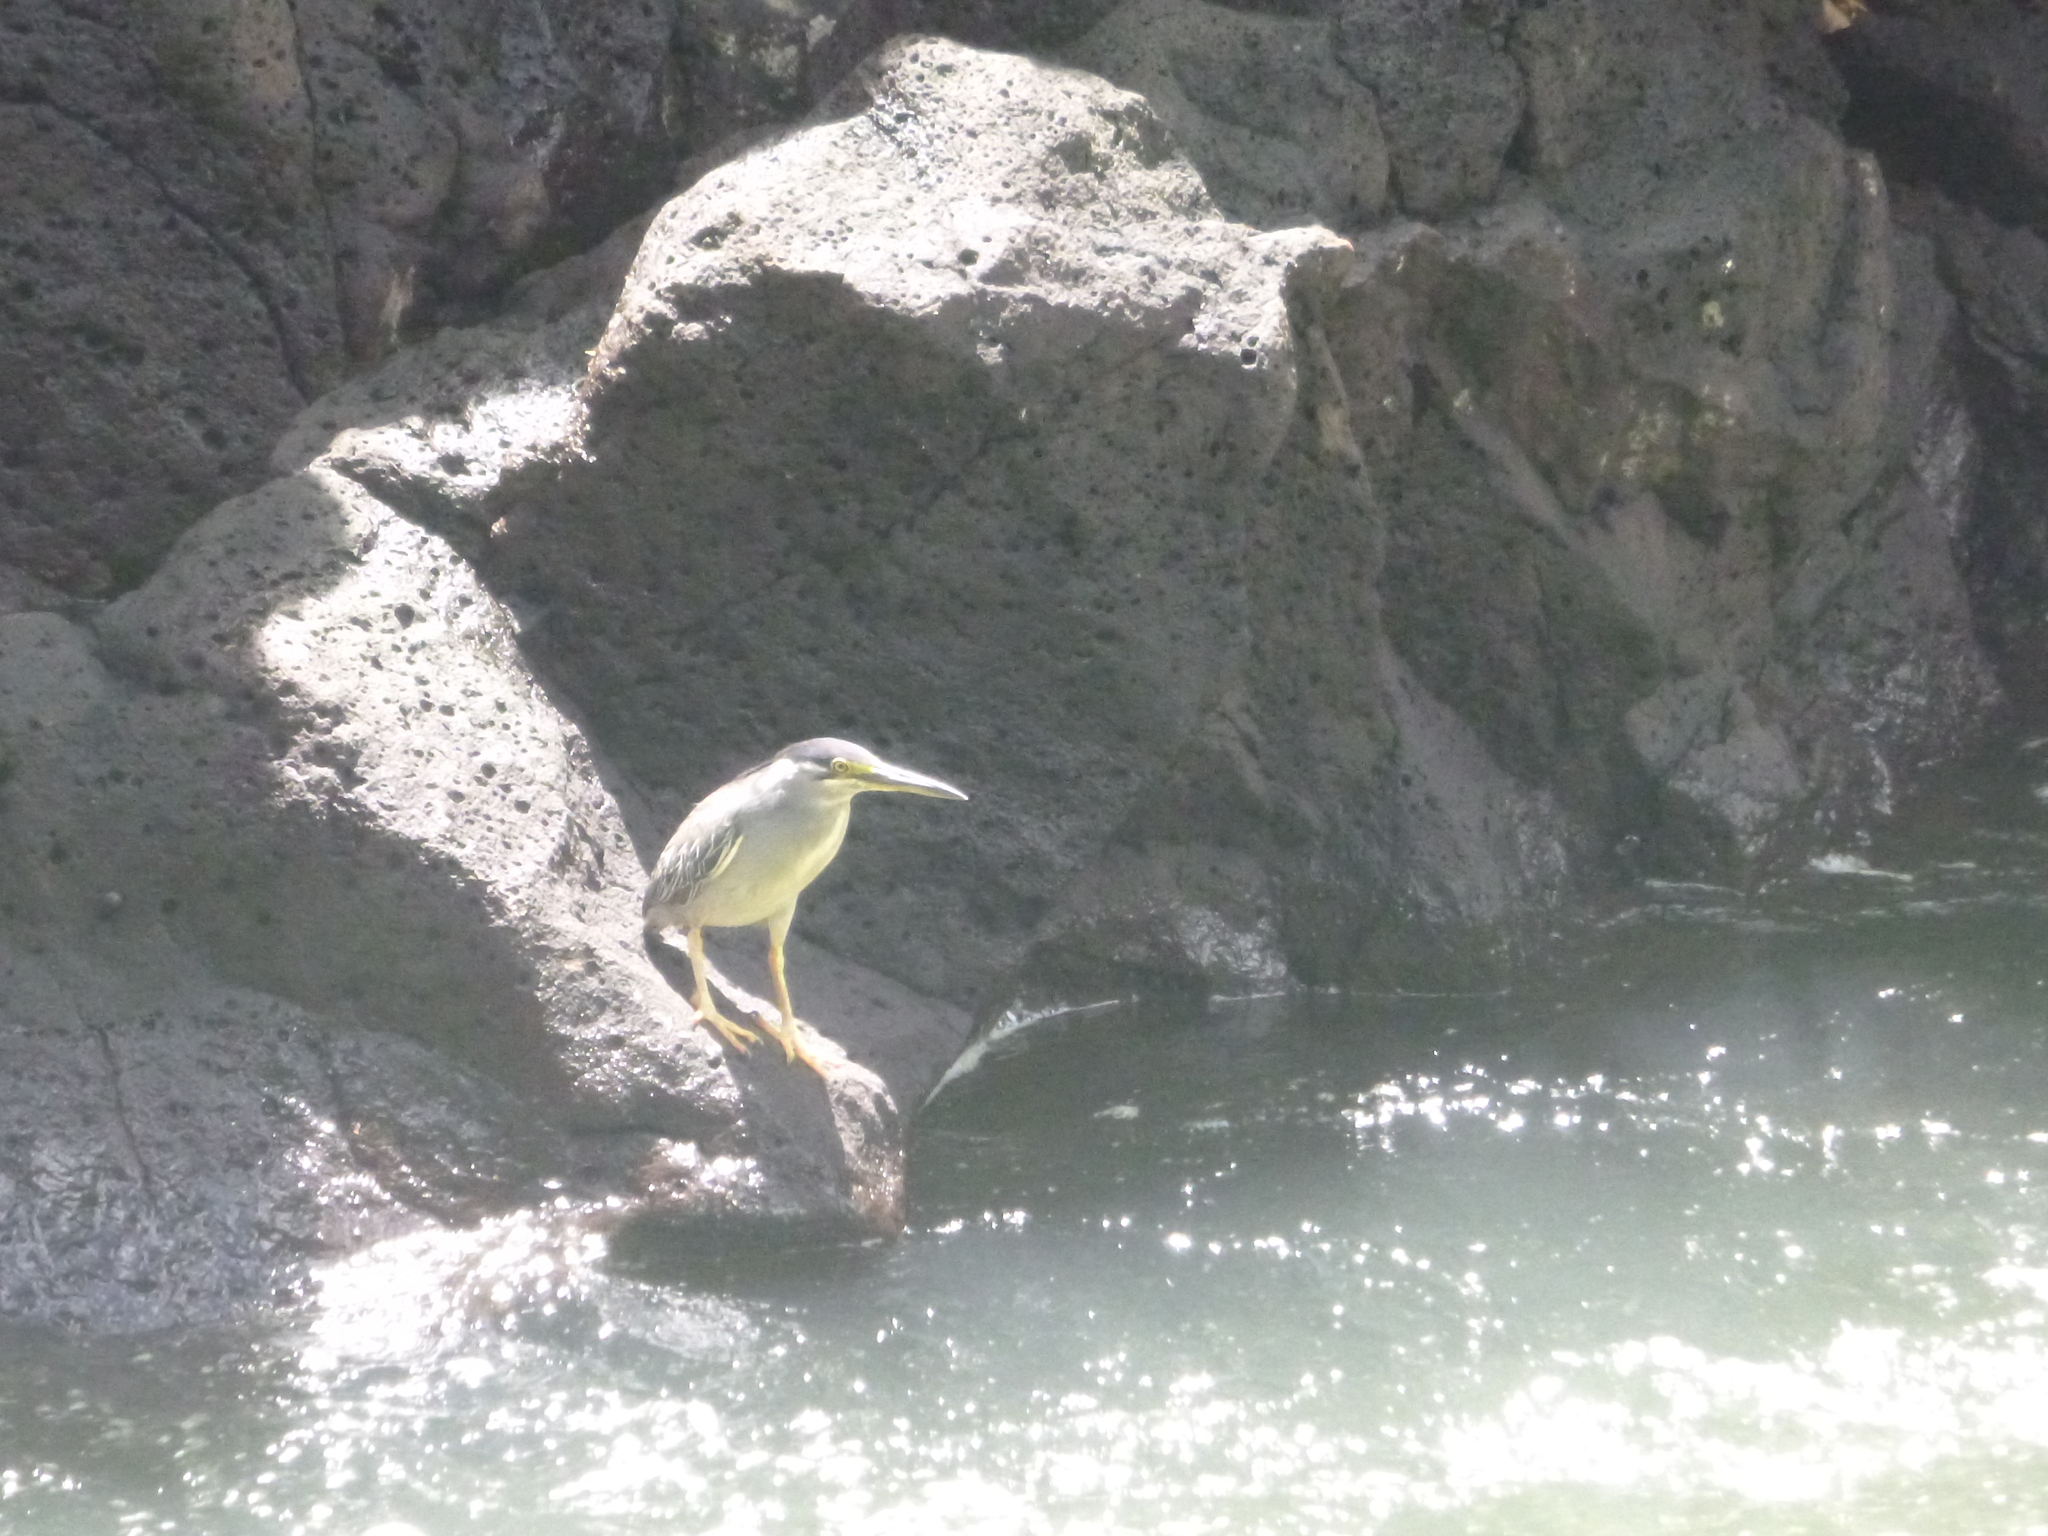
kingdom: Animalia
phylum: Chordata
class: Aves
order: Pelecaniformes
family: Ardeidae
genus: Butorides
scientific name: Butorides striata
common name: Striated heron
